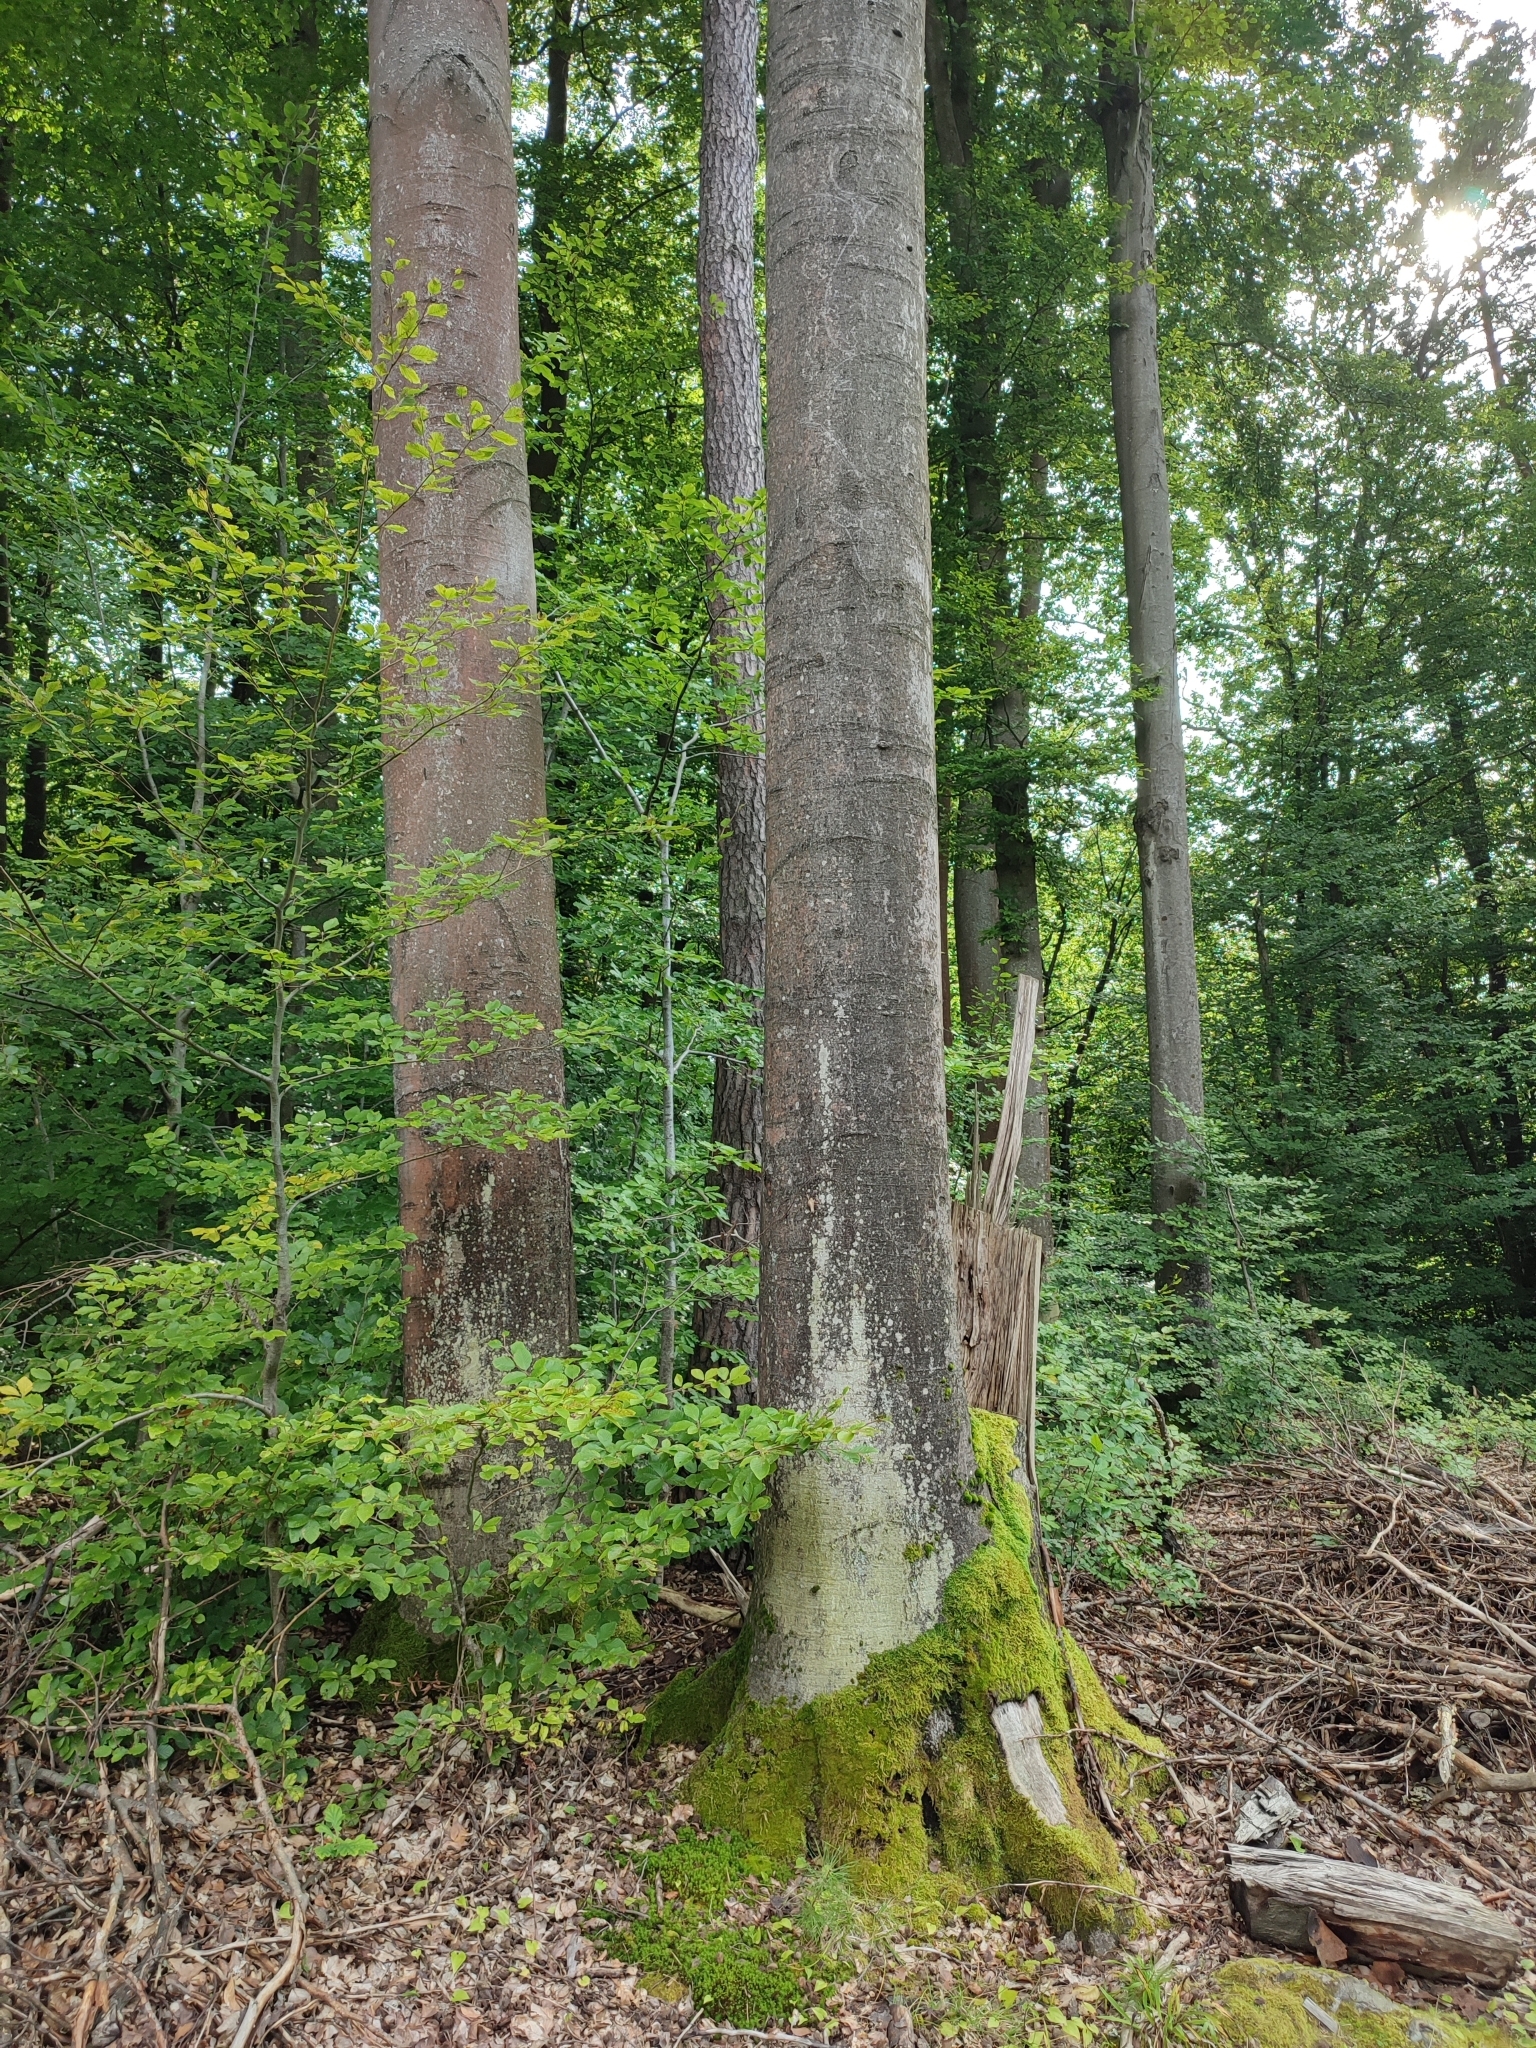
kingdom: Plantae
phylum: Tracheophyta
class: Magnoliopsida
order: Fagales
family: Fagaceae
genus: Fagus
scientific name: Fagus sylvatica
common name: Beech
